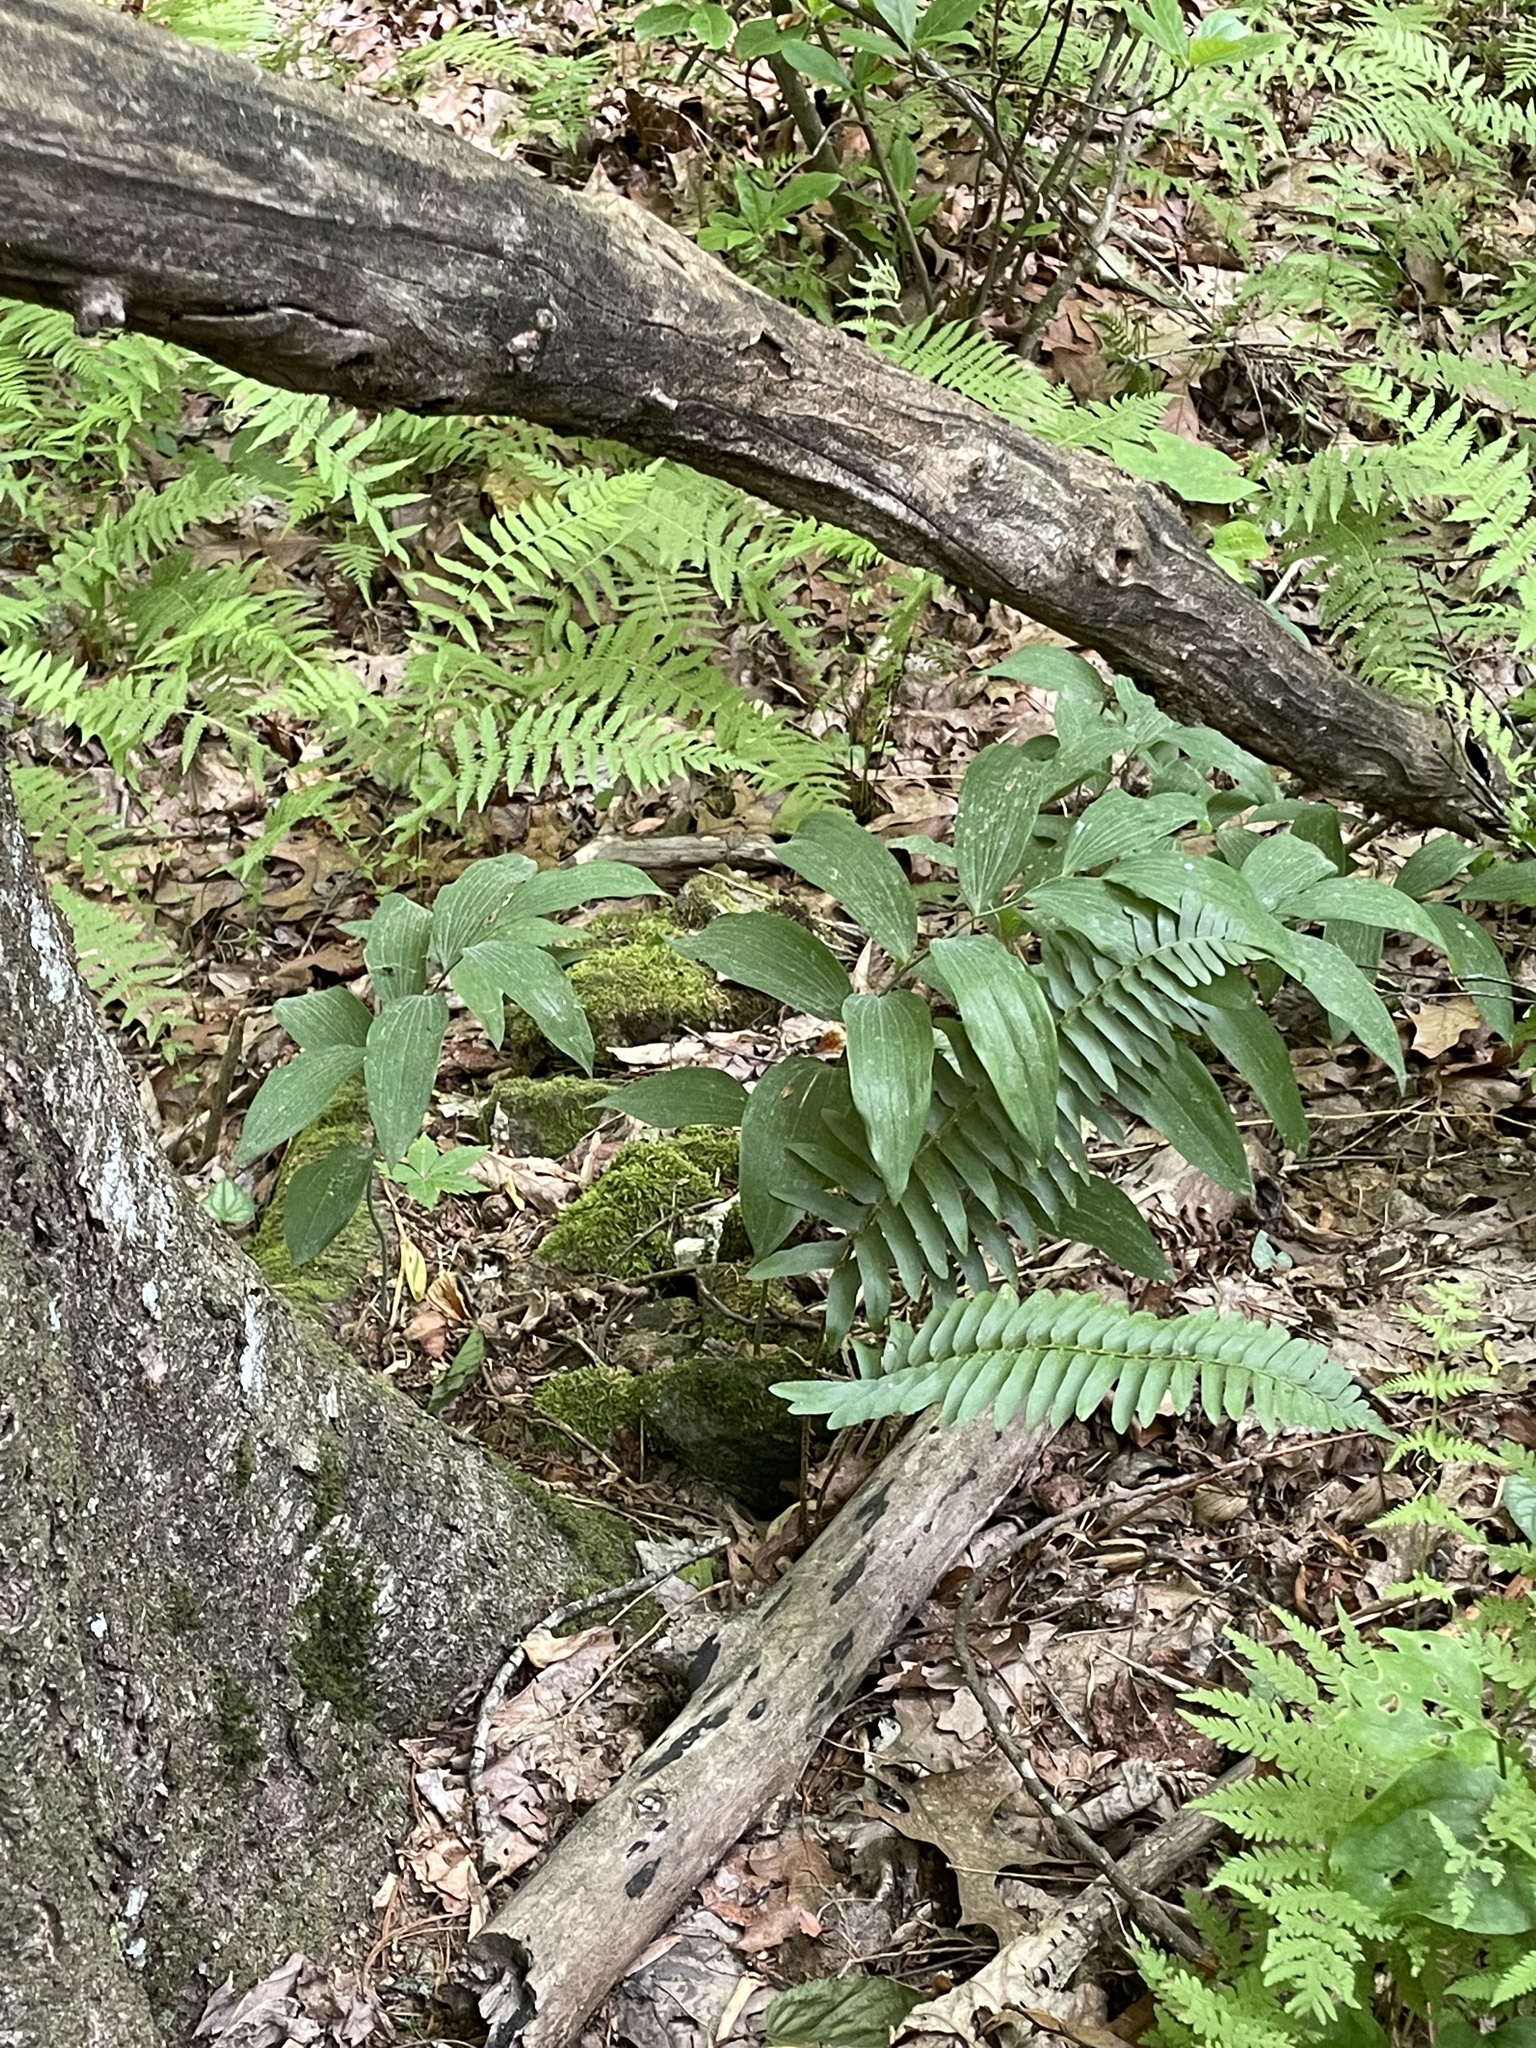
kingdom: Plantae
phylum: Tracheophyta
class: Polypodiopsida
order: Polypodiales
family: Dryopteridaceae
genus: Polystichum
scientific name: Polystichum acrostichoides
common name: Christmas fern
